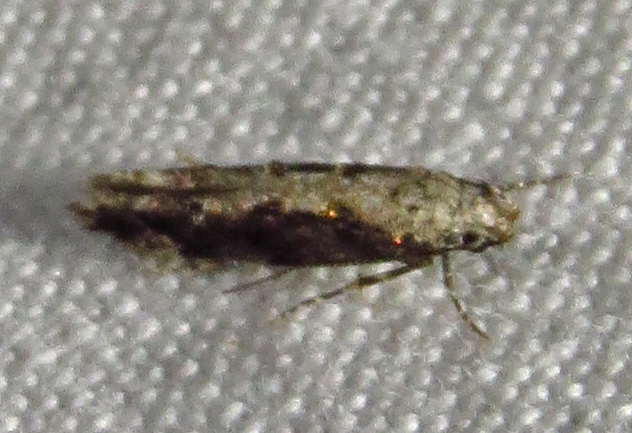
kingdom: Animalia
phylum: Arthropoda
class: Insecta
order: Lepidoptera
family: Gelechiidae
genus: Coleotechnites
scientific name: Coleotechnites florae
